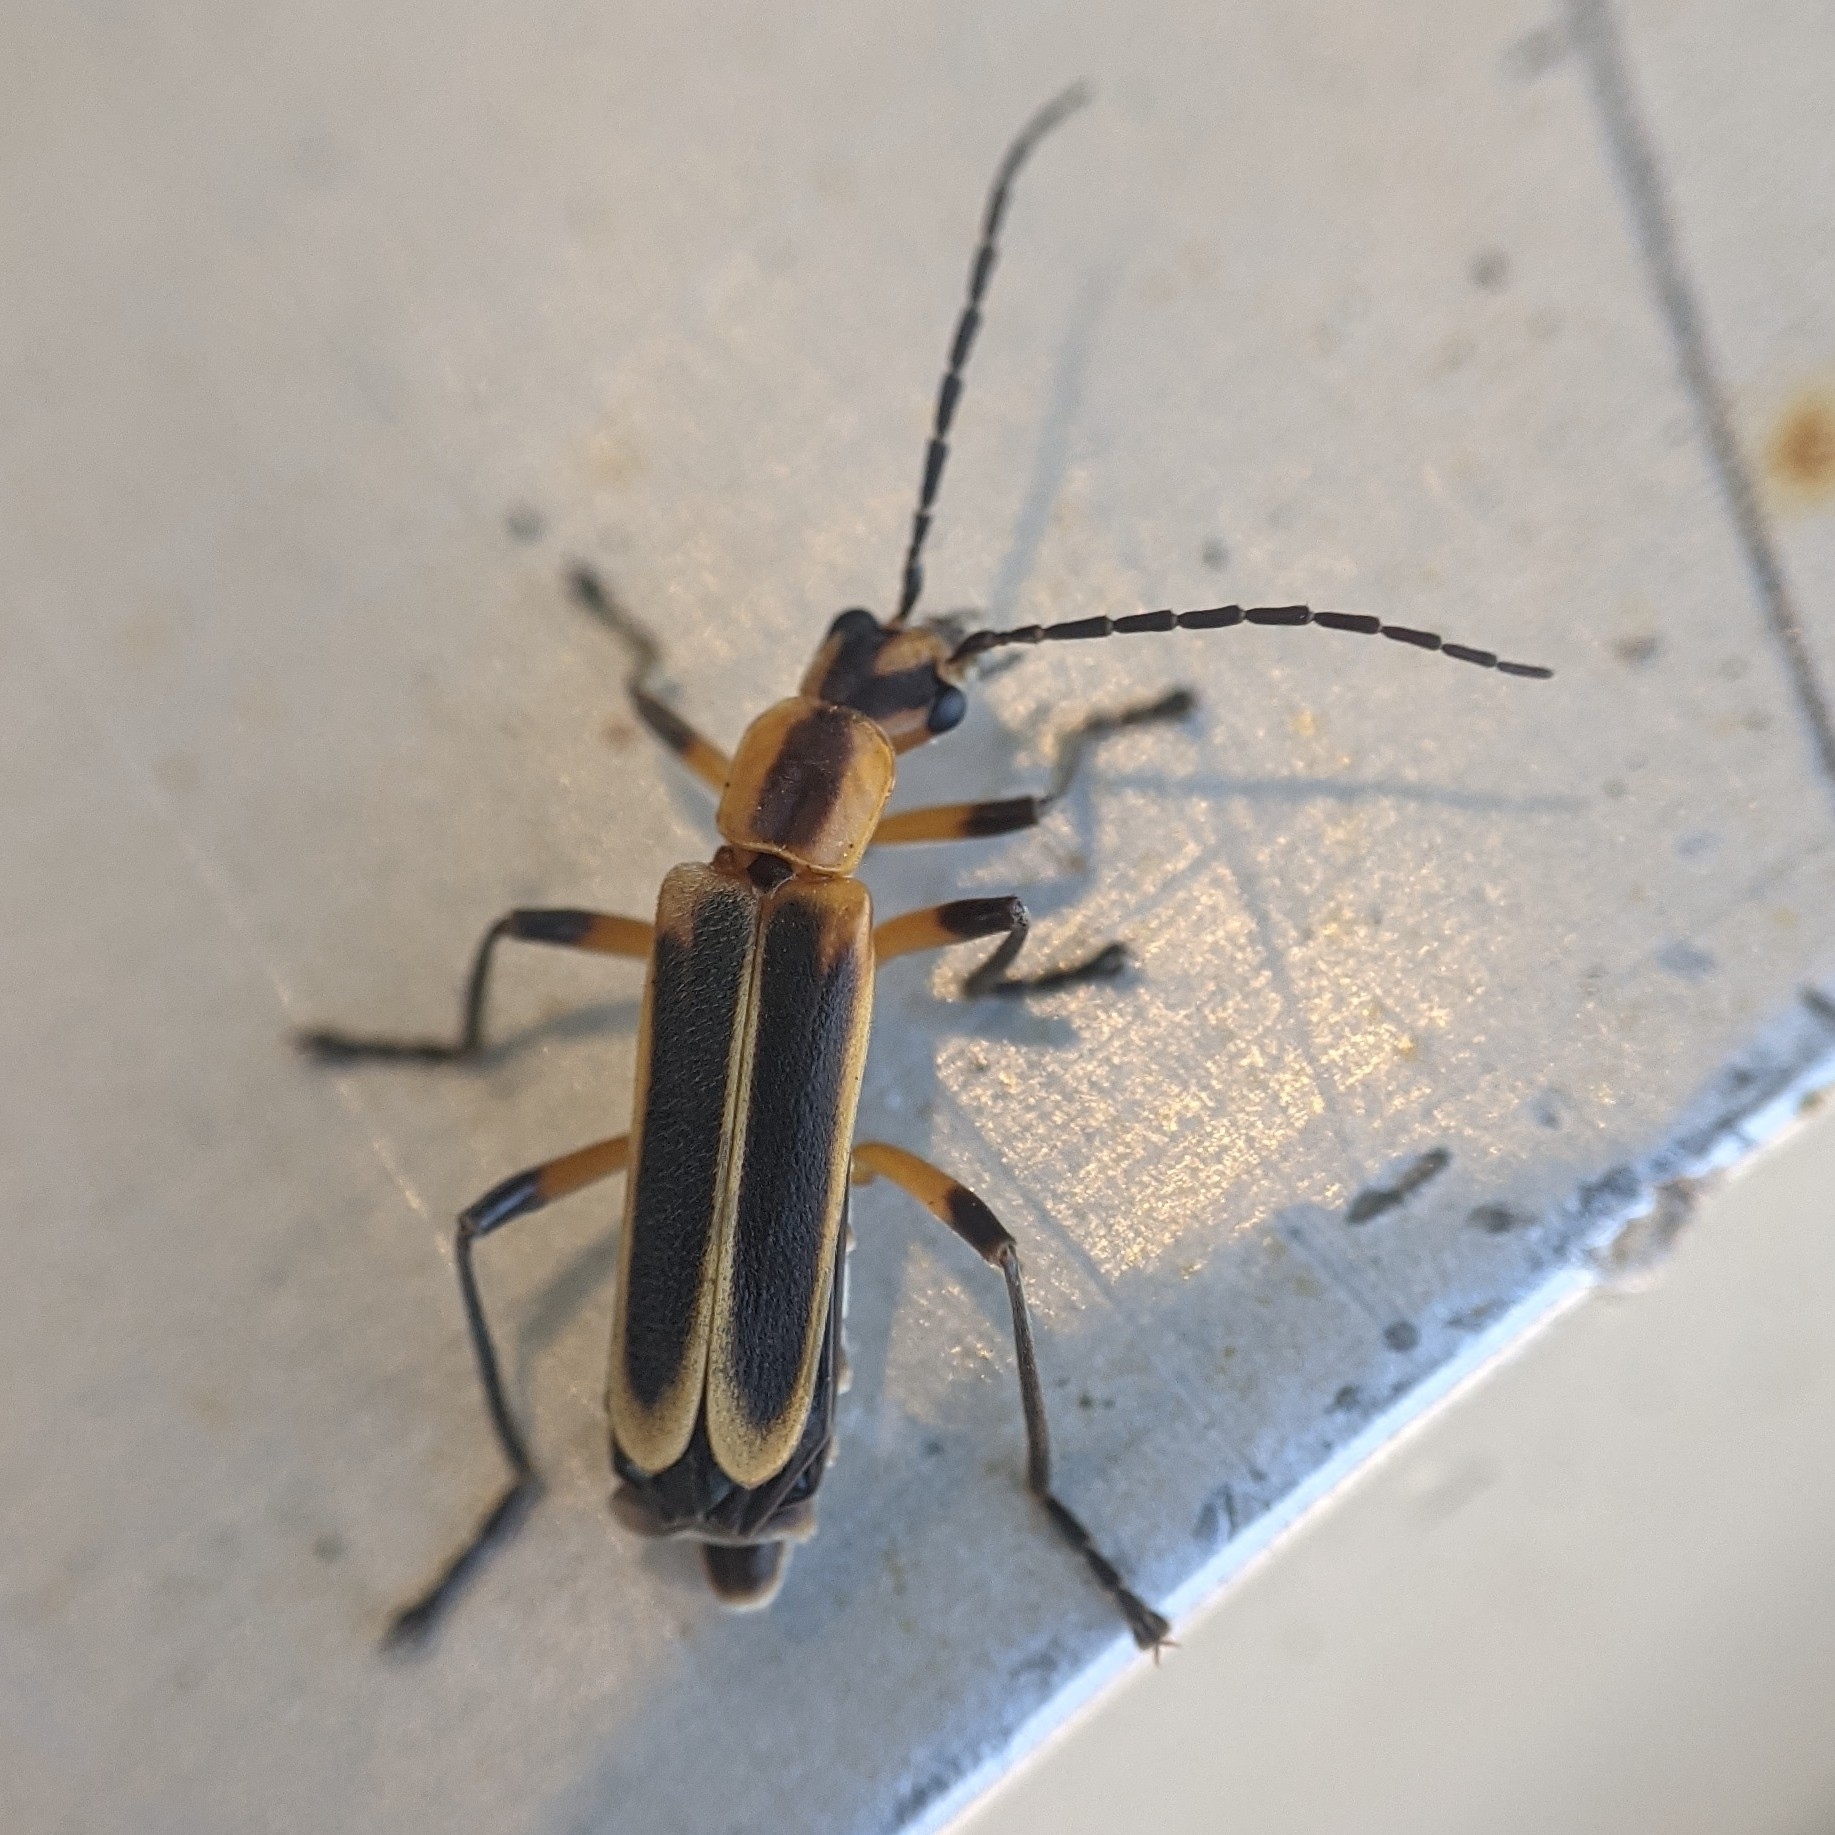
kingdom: Animalia
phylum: Arthropoda
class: Insecta
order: Coleoptera
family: Cantharidae
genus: Chauliognathus
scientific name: Chauliognathus marginatus
